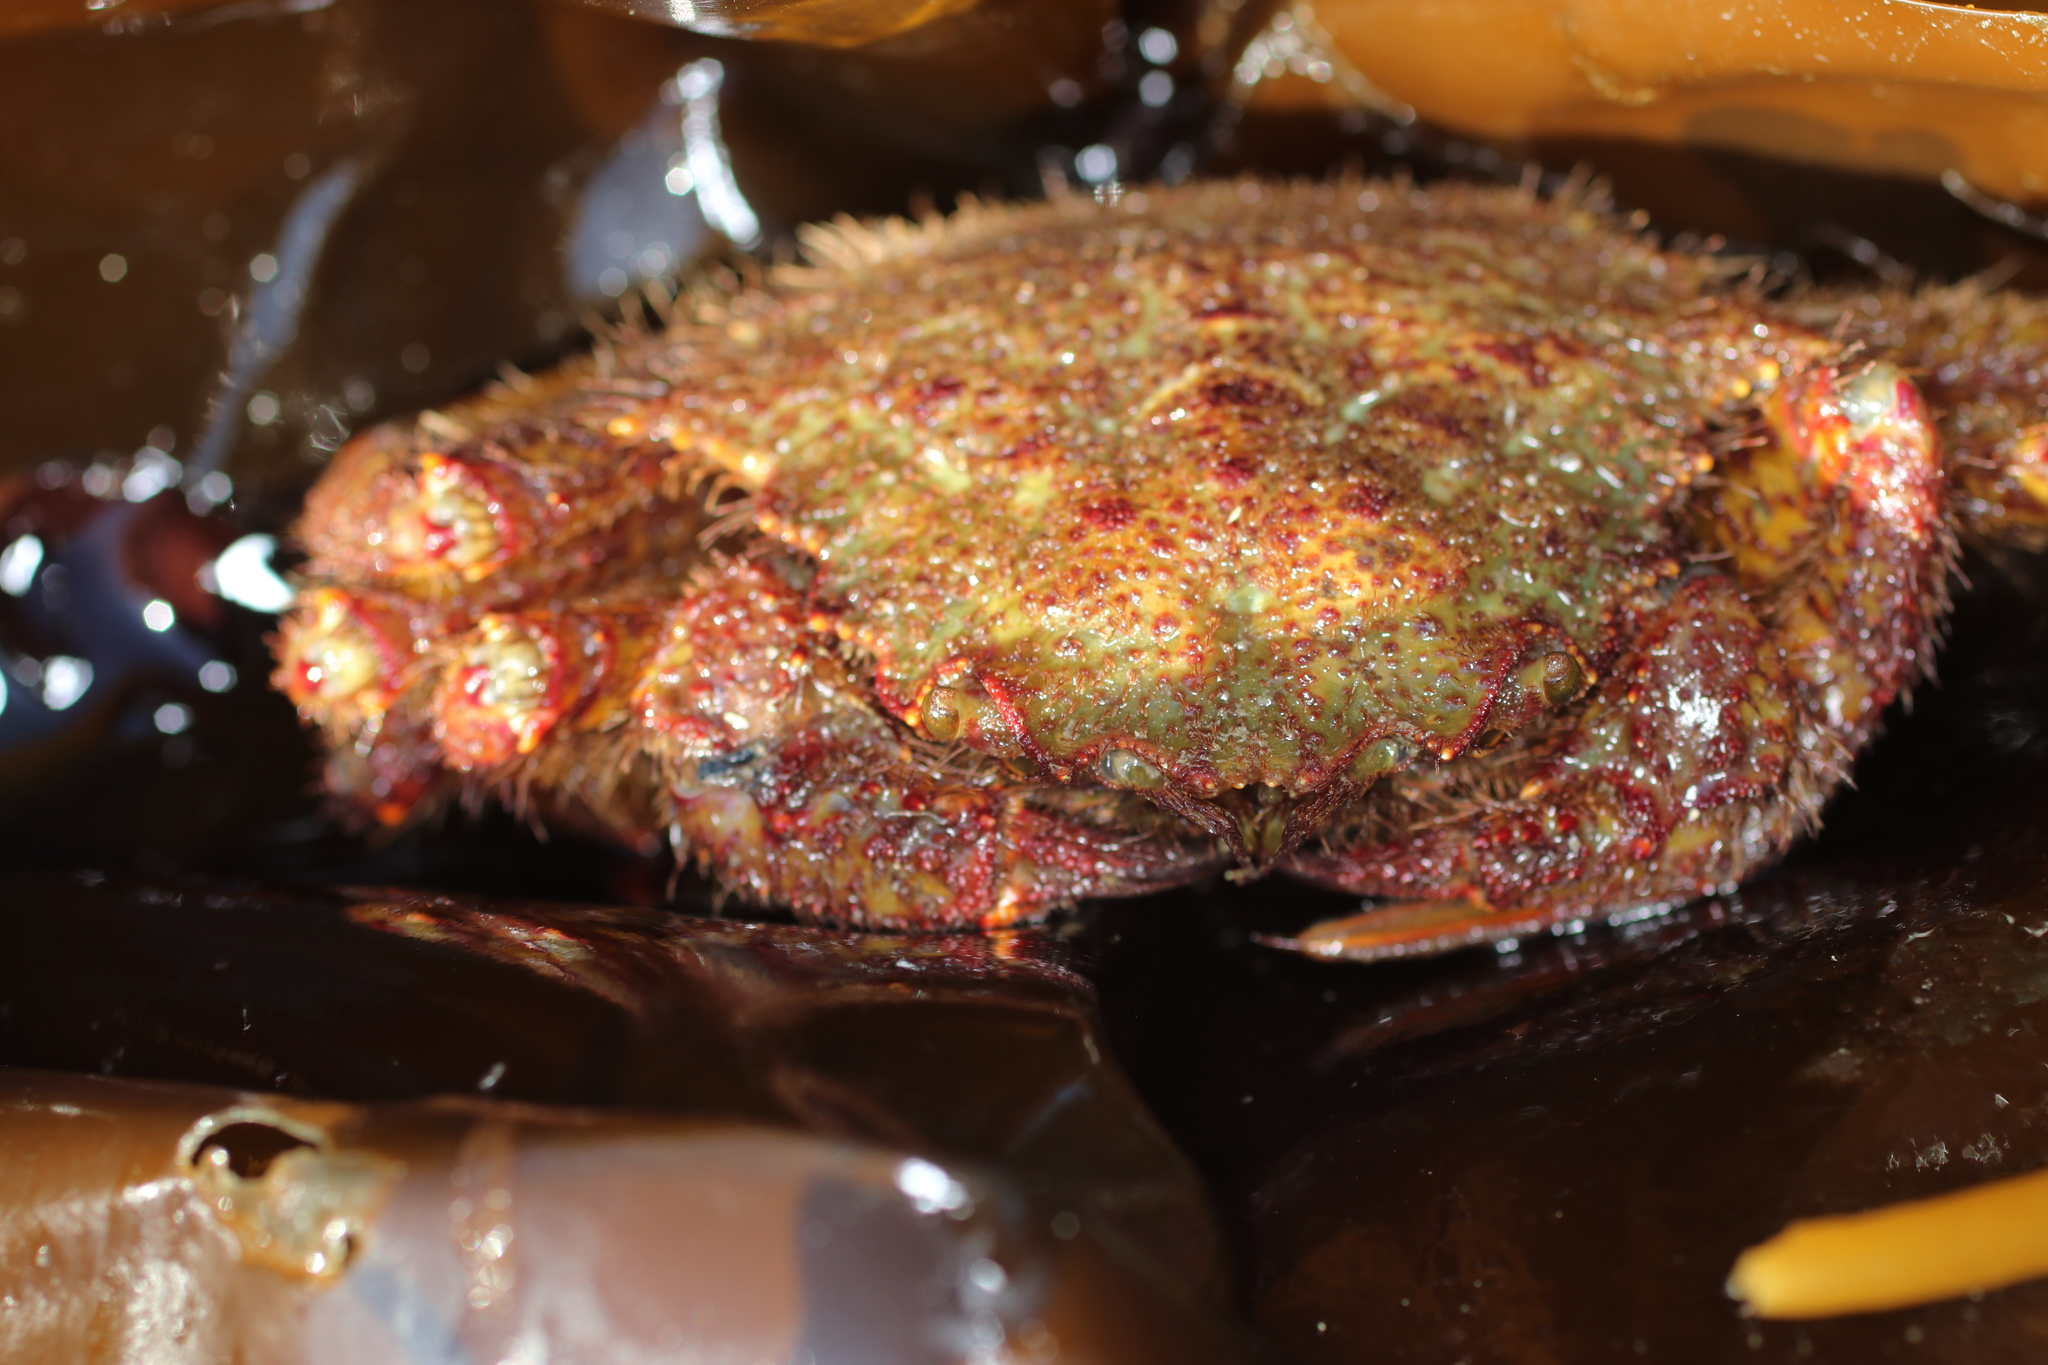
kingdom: Animalia
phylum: Arthropoda
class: Malacostraca
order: Decapoda
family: Cheiragonidae
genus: Telmessus
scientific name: Telmessus cheiragonus
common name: Helmet crab
